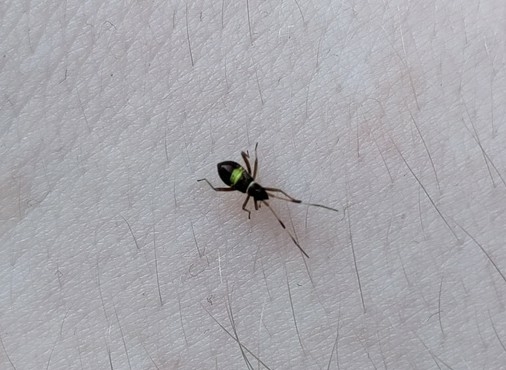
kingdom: Animalia
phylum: Arthropoda
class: Insecta
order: Hemiptera
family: Miridae
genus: Closterotomus
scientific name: Closterotomus biclavatus
